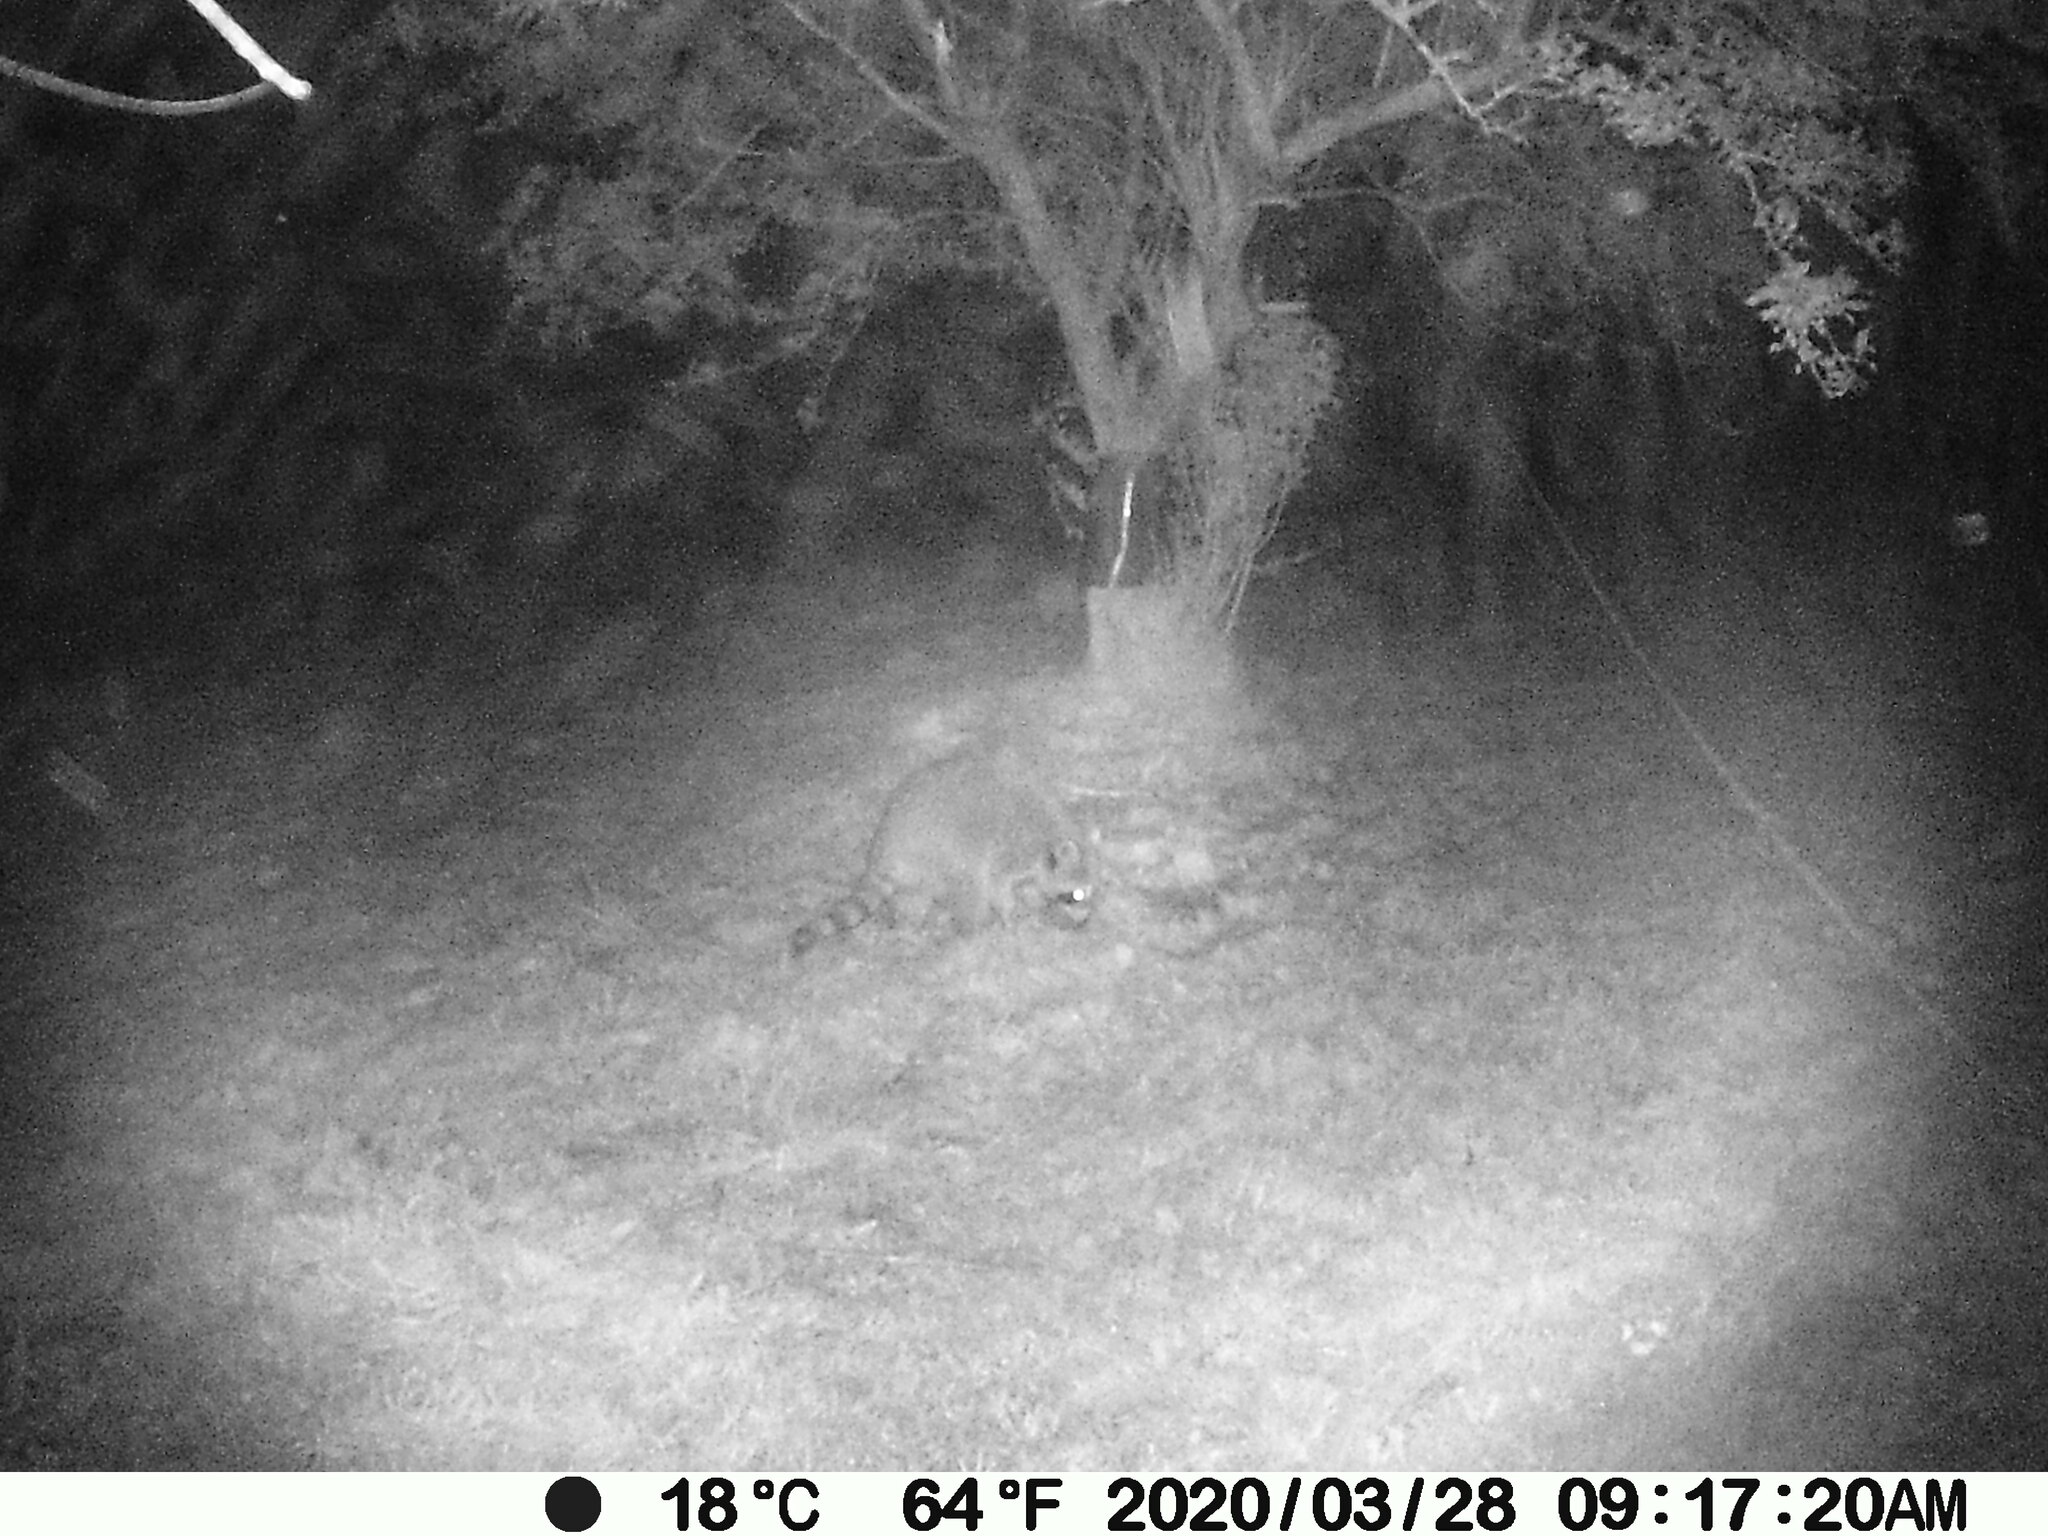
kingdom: Animalia
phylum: Chordata
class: Mammalia
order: Carnivora
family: Procyonidae
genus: Procyon
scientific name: Procyon lotor
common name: Raccoon
